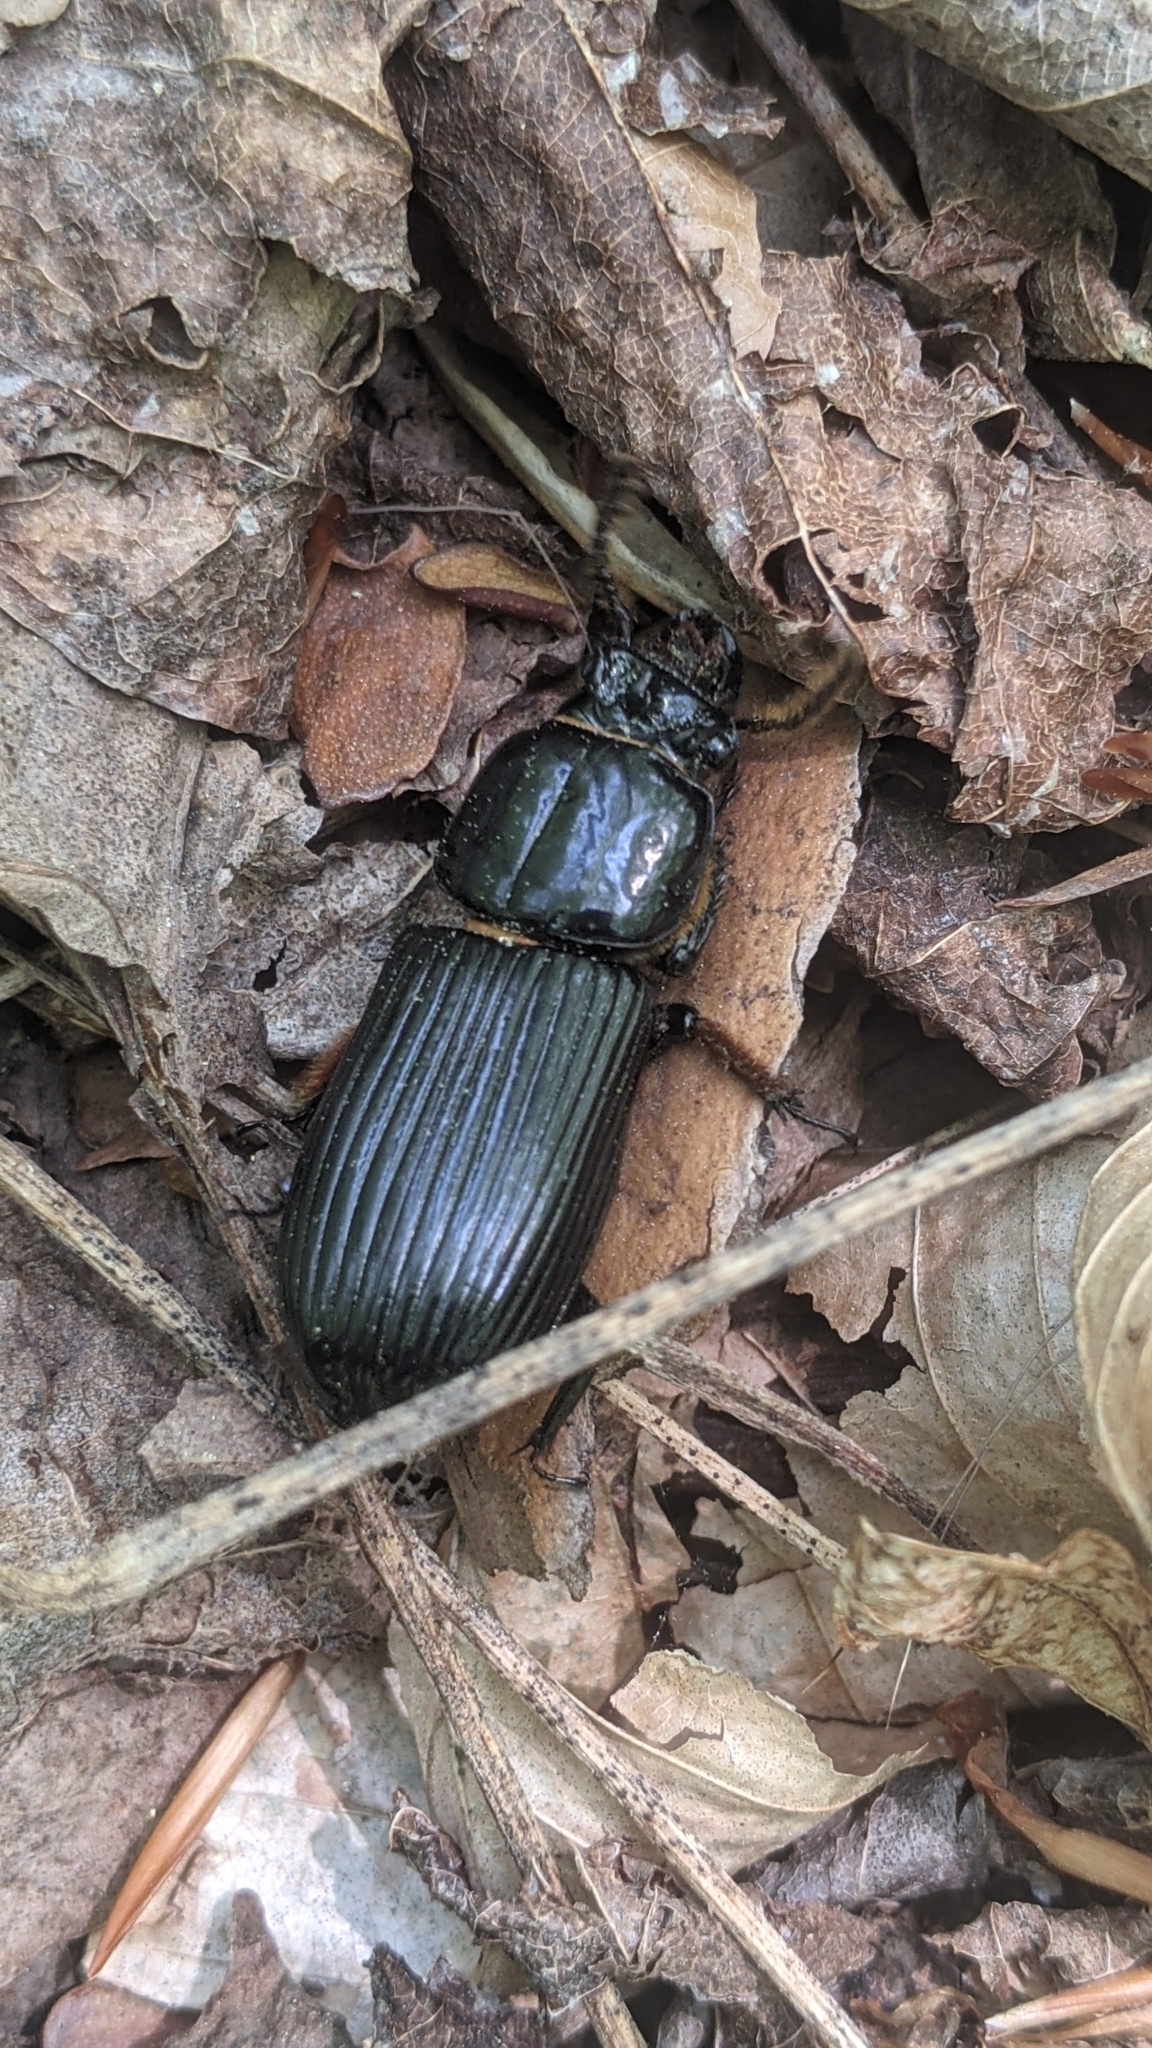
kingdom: Animalia
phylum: Arthropoda
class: Insecta
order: Coleoptera
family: Passalidae
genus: Odontotaenius
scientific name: Odontotaenius disjunctus
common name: Patent leather beetle
